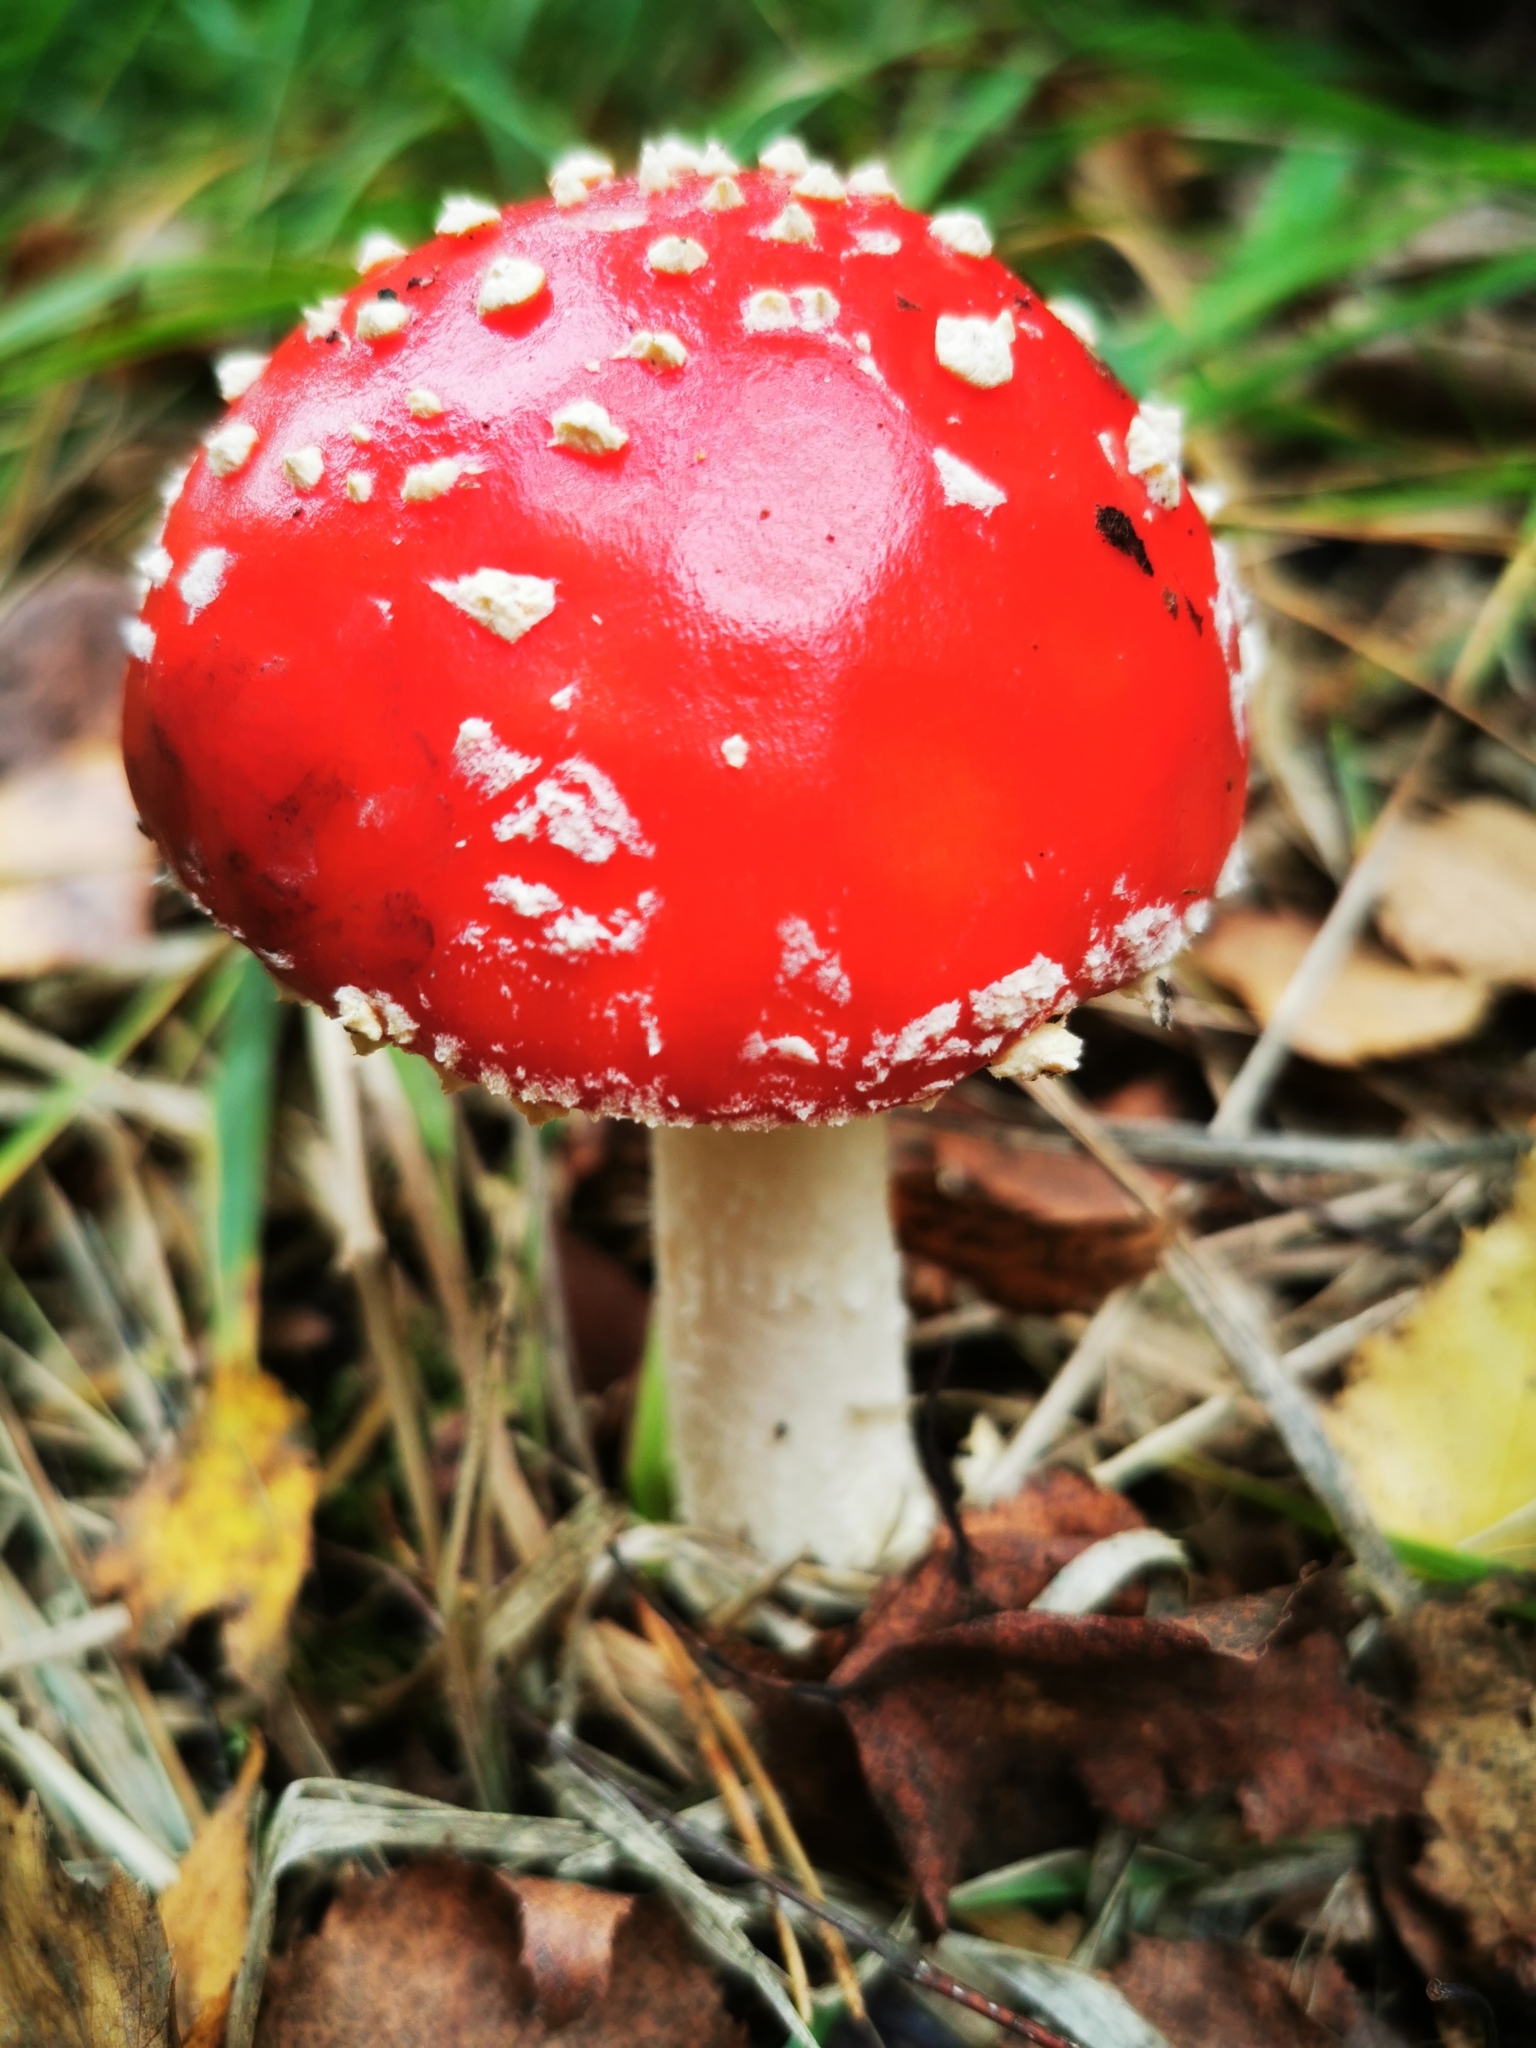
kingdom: Fungi
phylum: Basidiomycota
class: Agaricomycetes
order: Agaricales
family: Amanitaceae
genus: Amanita
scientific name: Amanita muscaria
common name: Fly agaric
